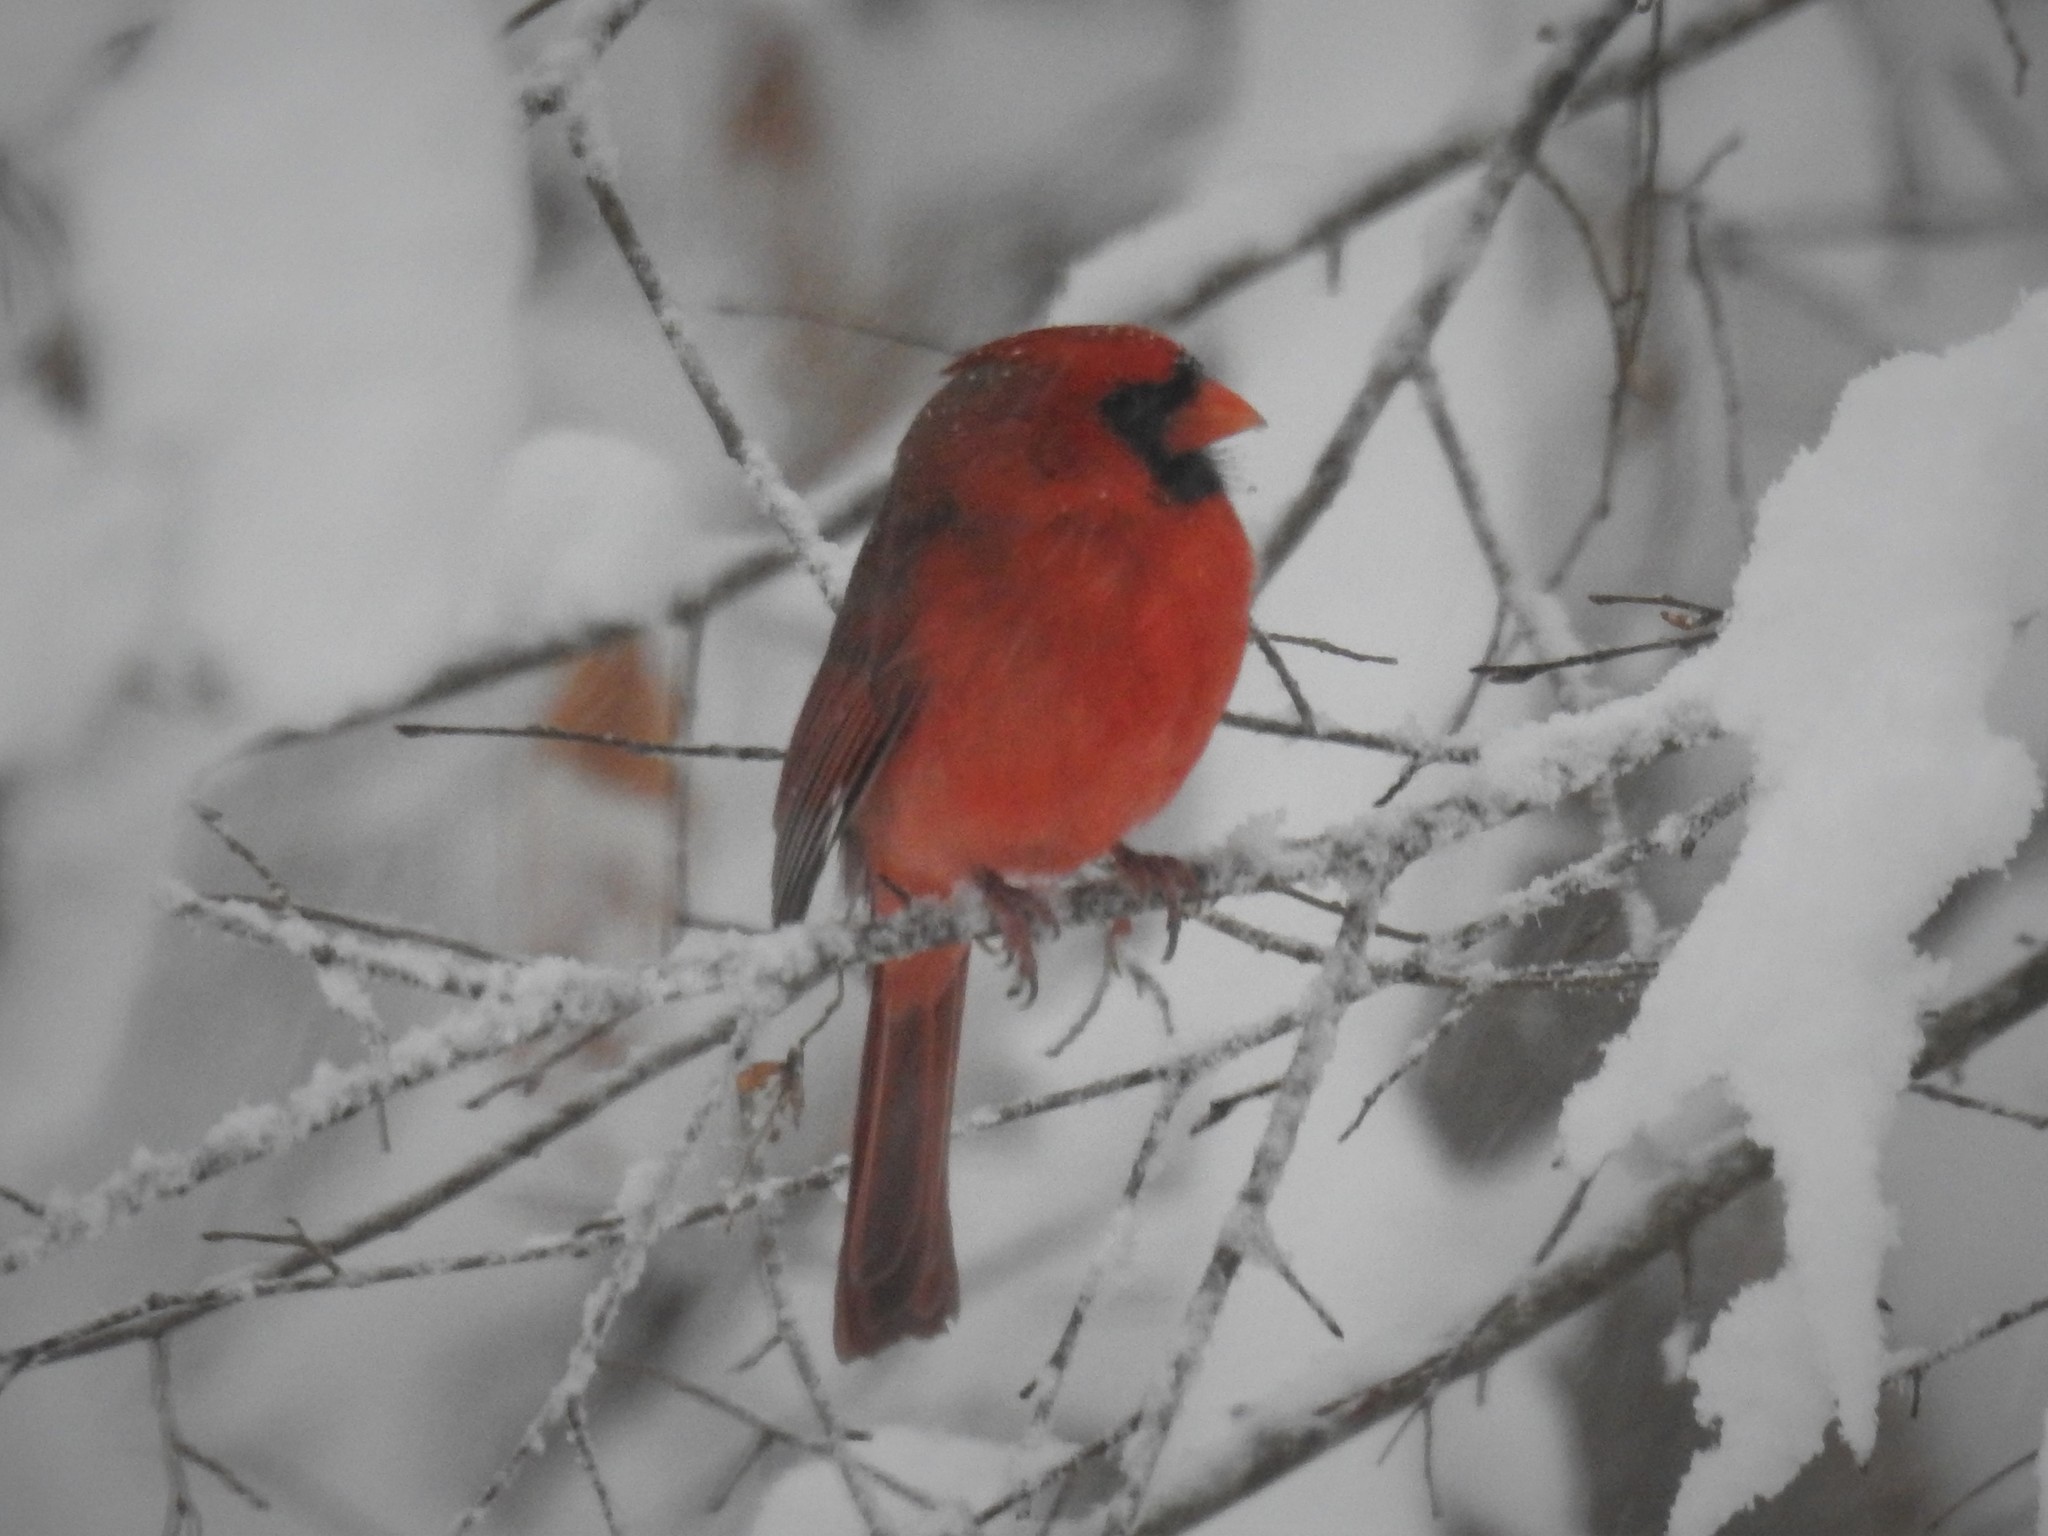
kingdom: Animalia
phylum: Chordata
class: Aves
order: Passeriformes
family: Cardinalidae
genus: Cardinalis
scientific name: Cardinalis cardinalis
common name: Northern cardinal
